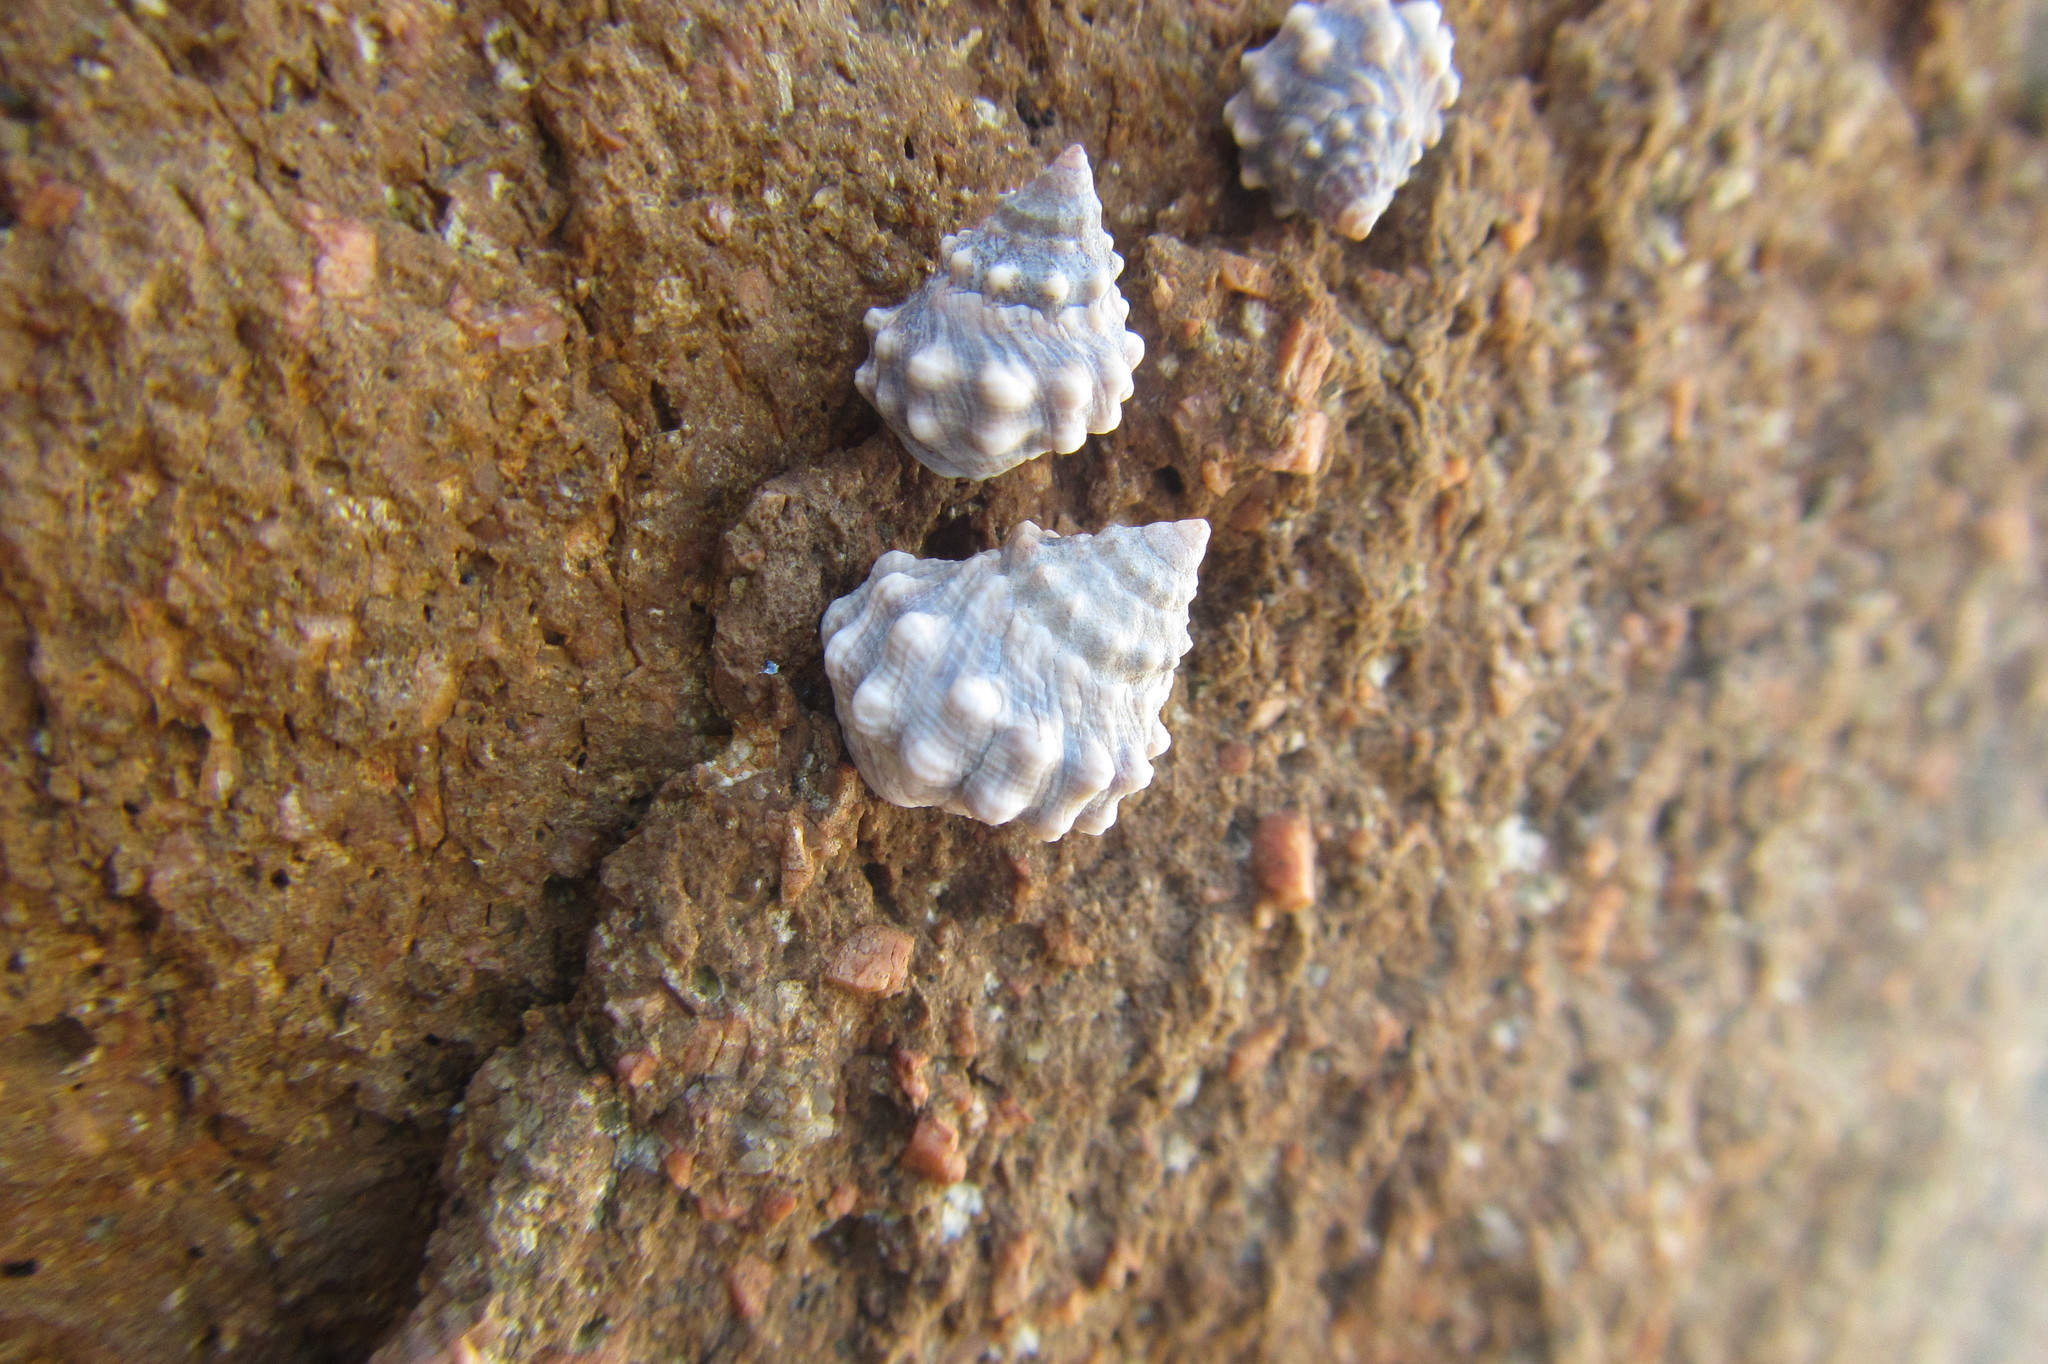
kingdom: Animalia
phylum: Mollusca
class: Gastropoda
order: Littorinimorpha
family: Littorinidae
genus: Nodilittorina
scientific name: Nodilittorina pyramidalis
